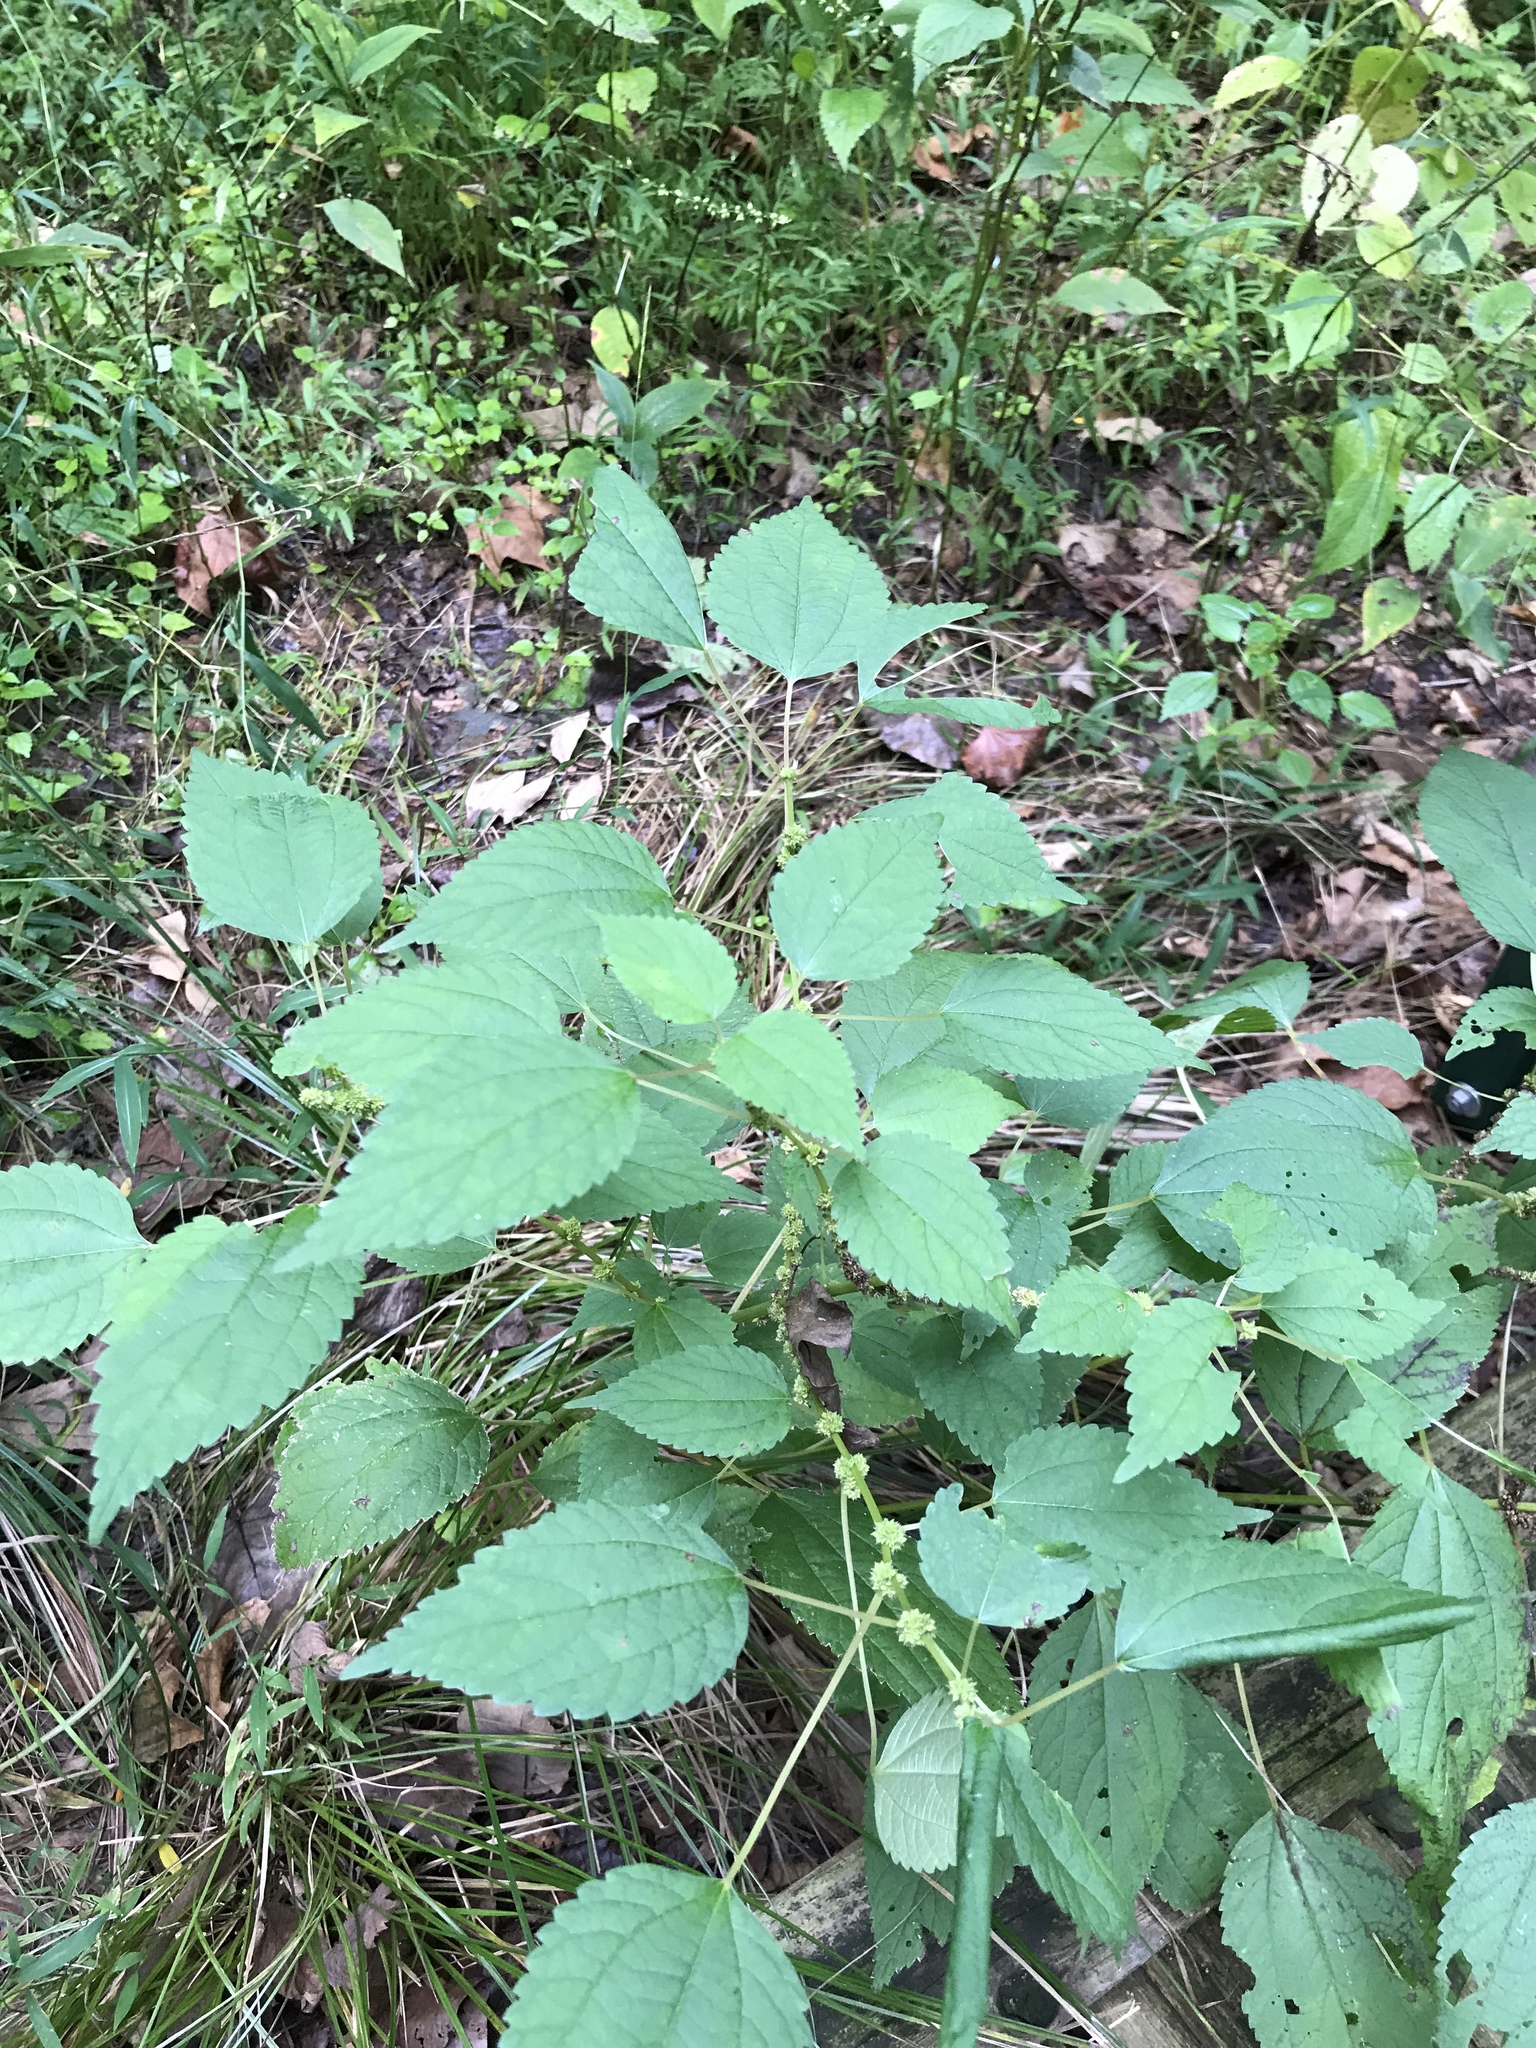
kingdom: Plantae
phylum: Tracheophyta
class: Magnoliopsida
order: Rosales
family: Urticaceae
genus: Boehmeria
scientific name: Boehmeria cylindrica
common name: Bog-hemp
